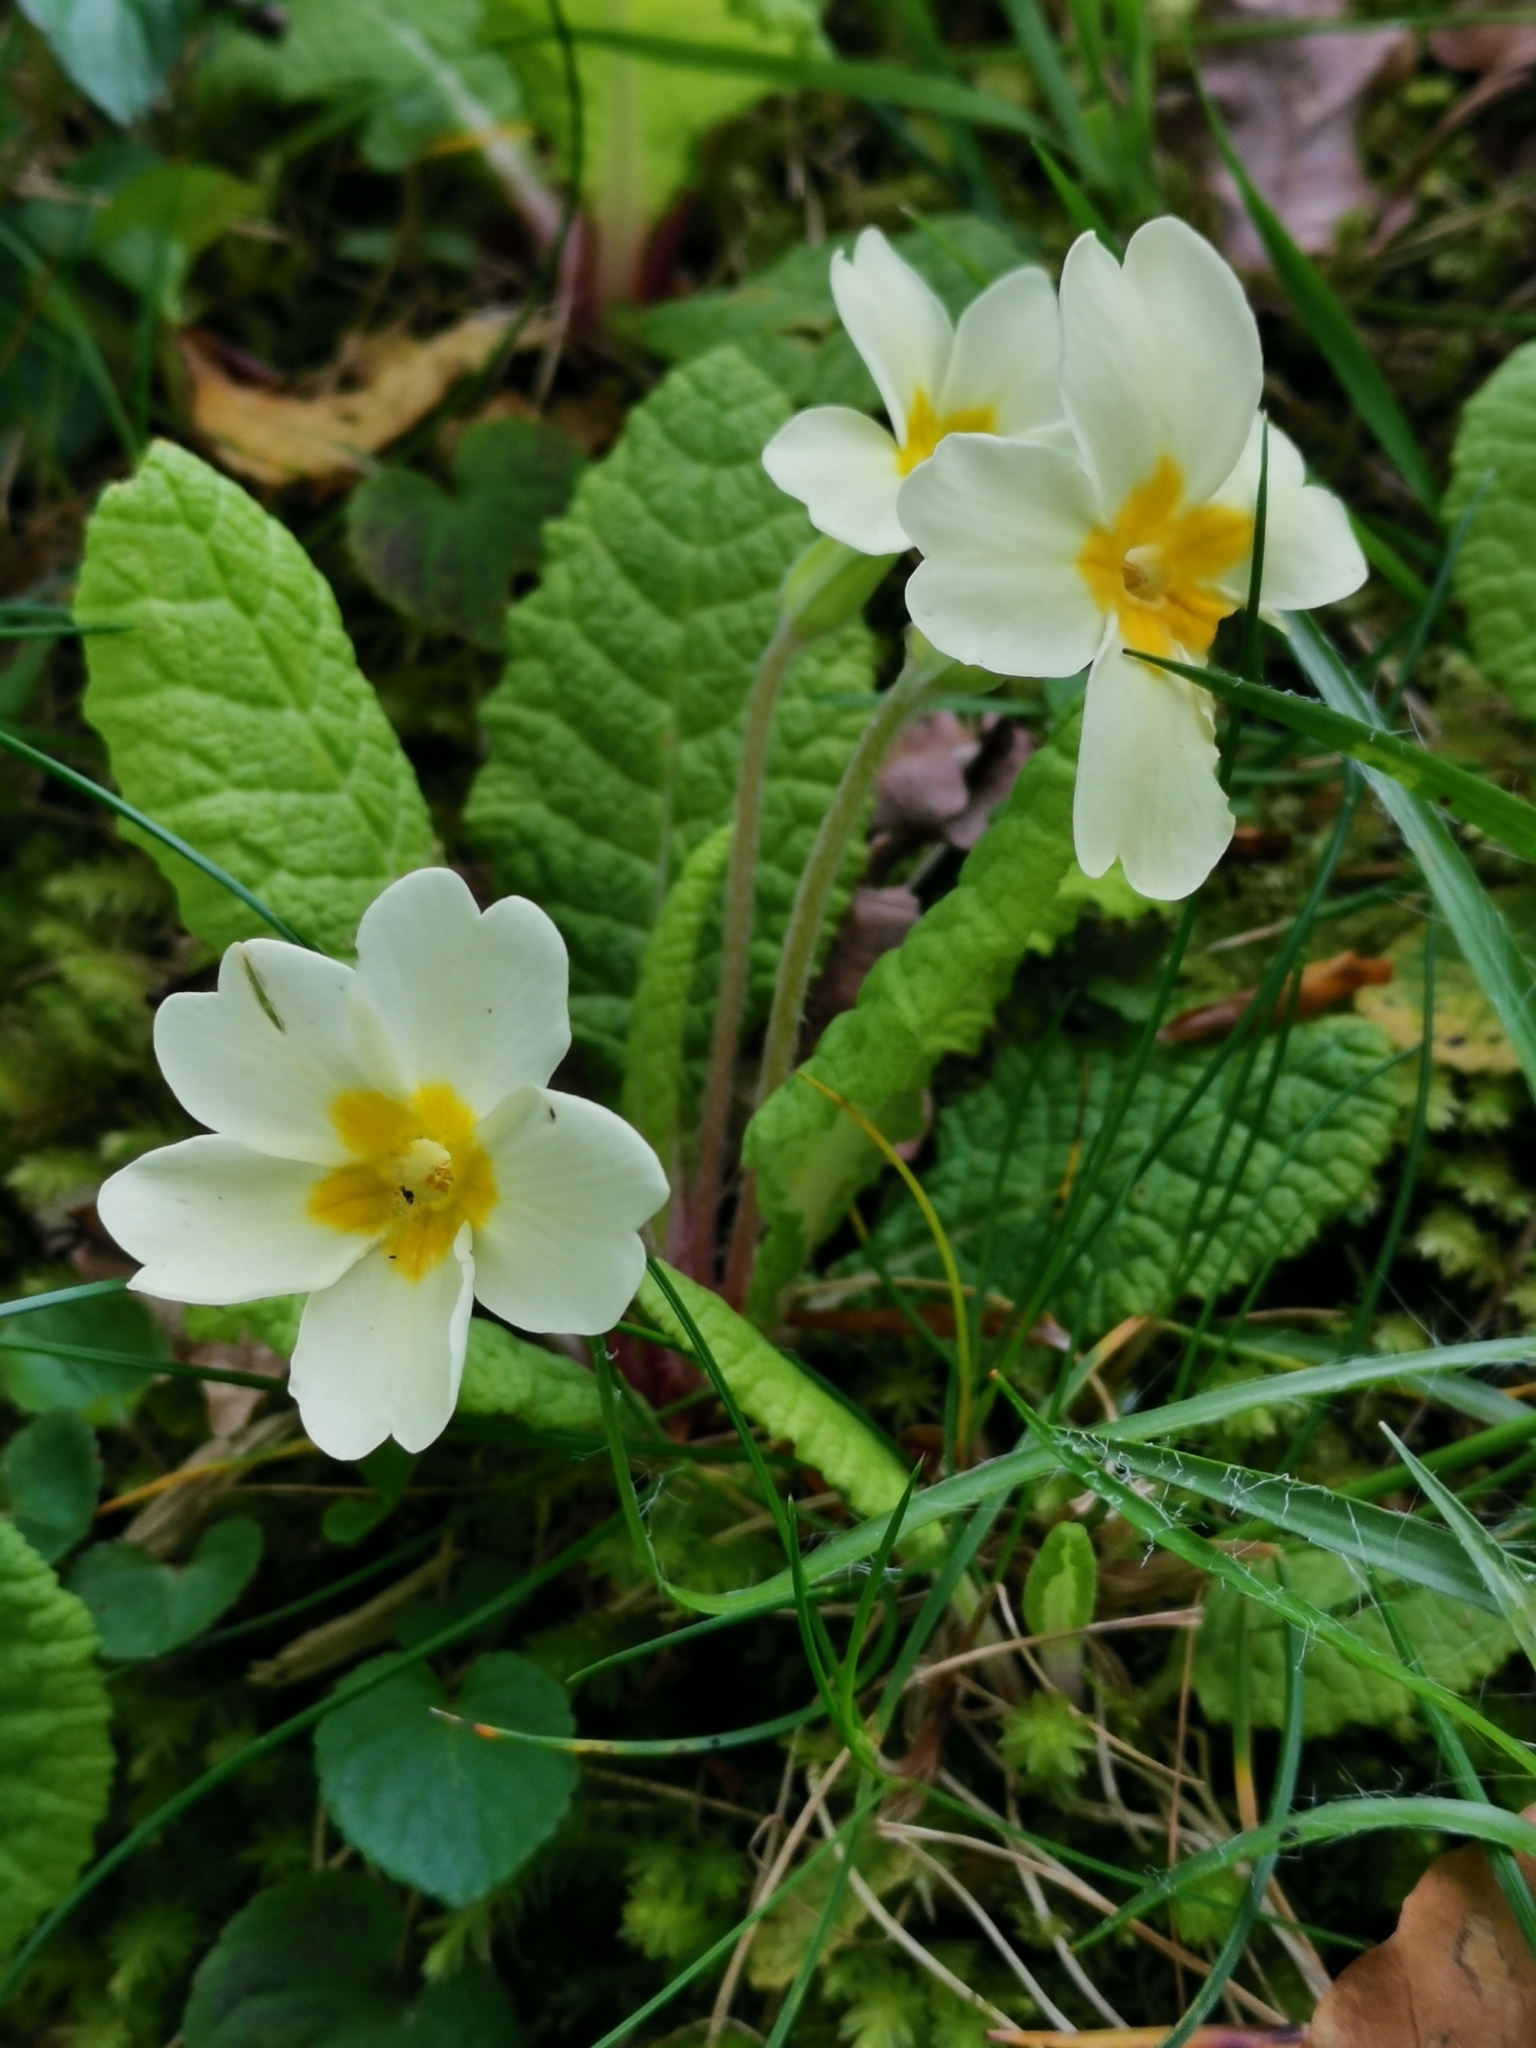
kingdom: Plantae
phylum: Tracheophyta
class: Magnoliopsida
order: Ericales
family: Primulaceae
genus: Primula
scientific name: Primula vulgaris
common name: Primrose
